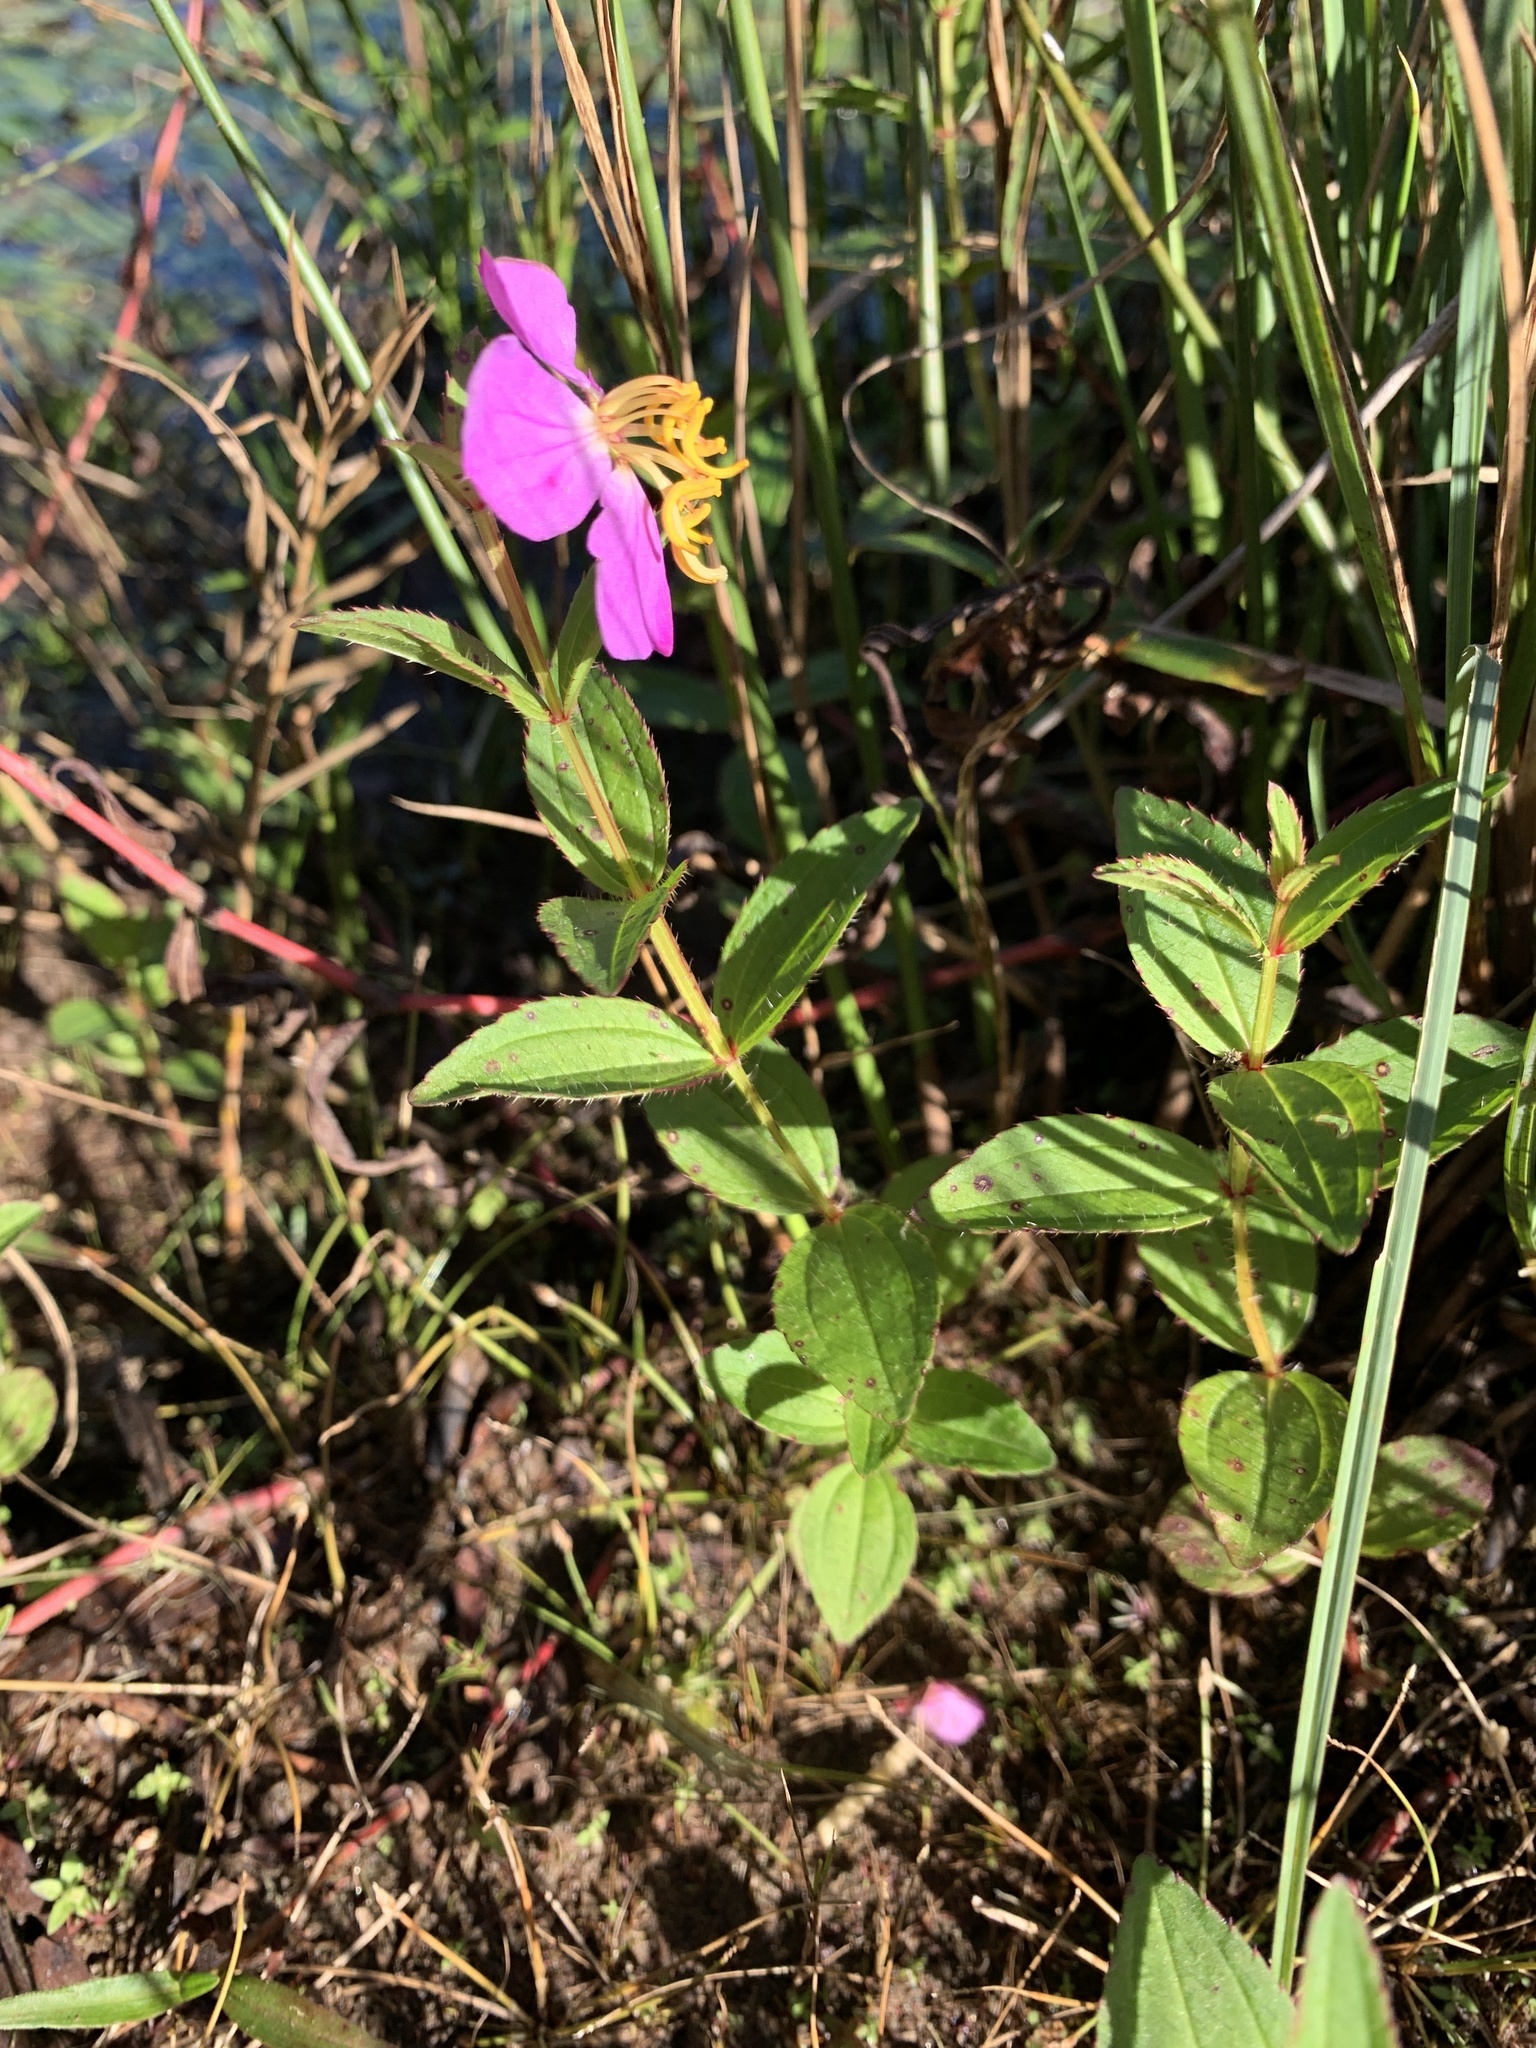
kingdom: Plantae
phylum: Tracheophyta
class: Magnoliopsida
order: Myrtales
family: Melastomataceae
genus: Rhexia
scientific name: Rhexia virginica
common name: Common meadow beauty
